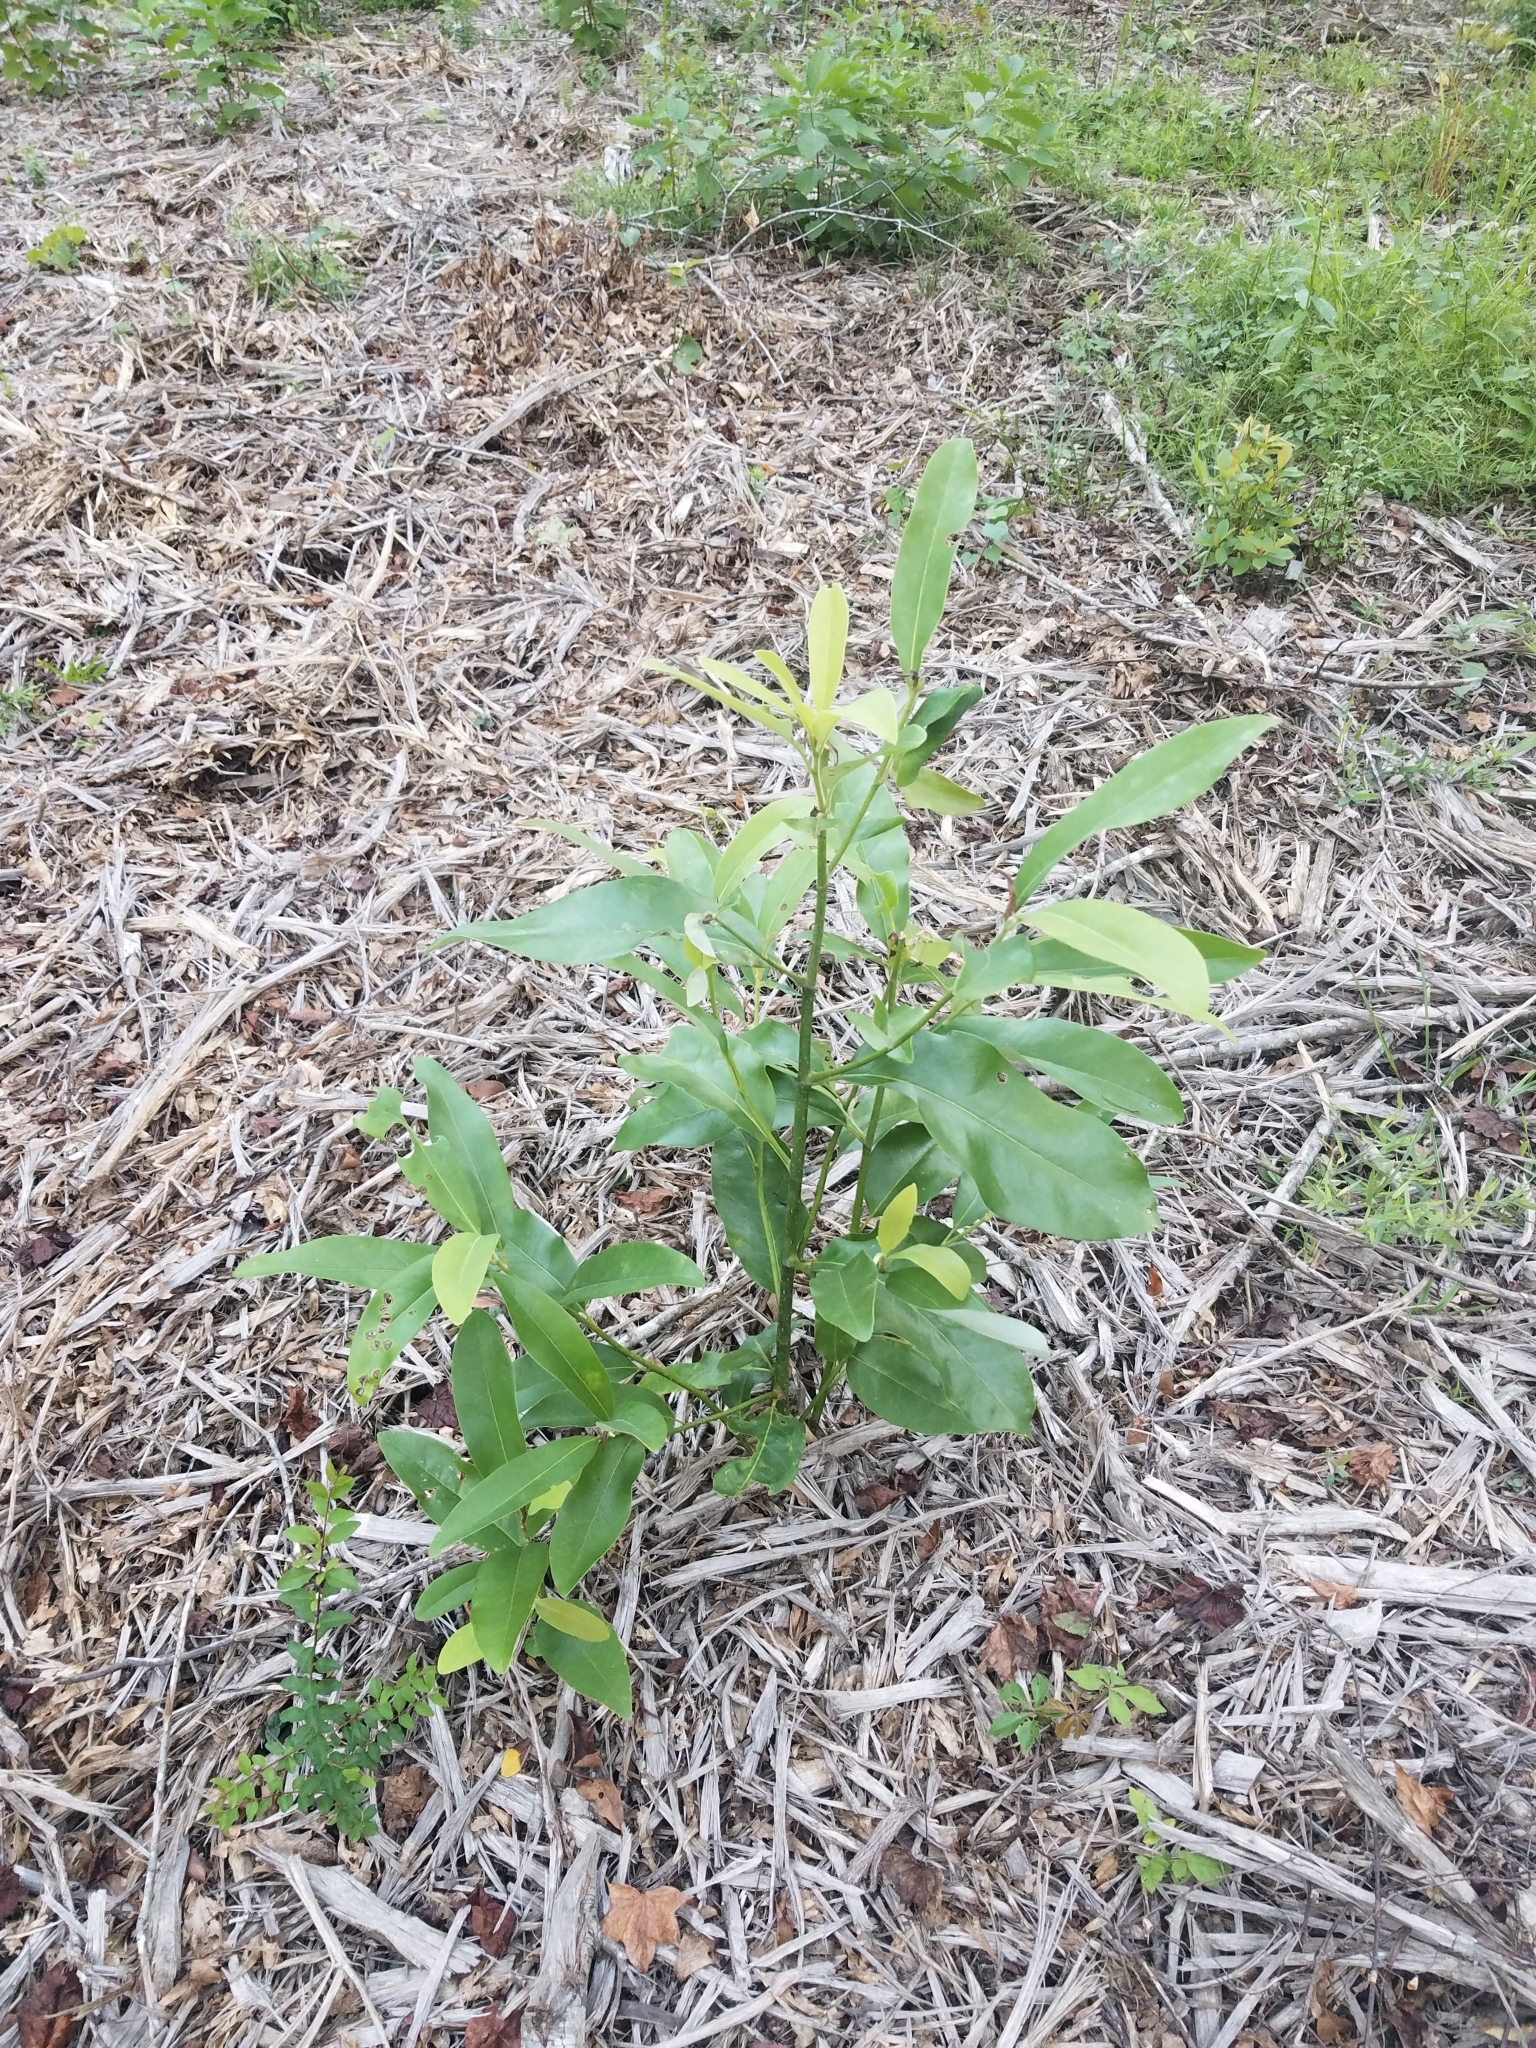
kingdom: Plantae
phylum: Tracheophyta
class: Magnoliopsida
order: Magnoliales
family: Magnoliaceae
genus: Magnolia
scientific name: Magnolia virginiana
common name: Swamp bay
